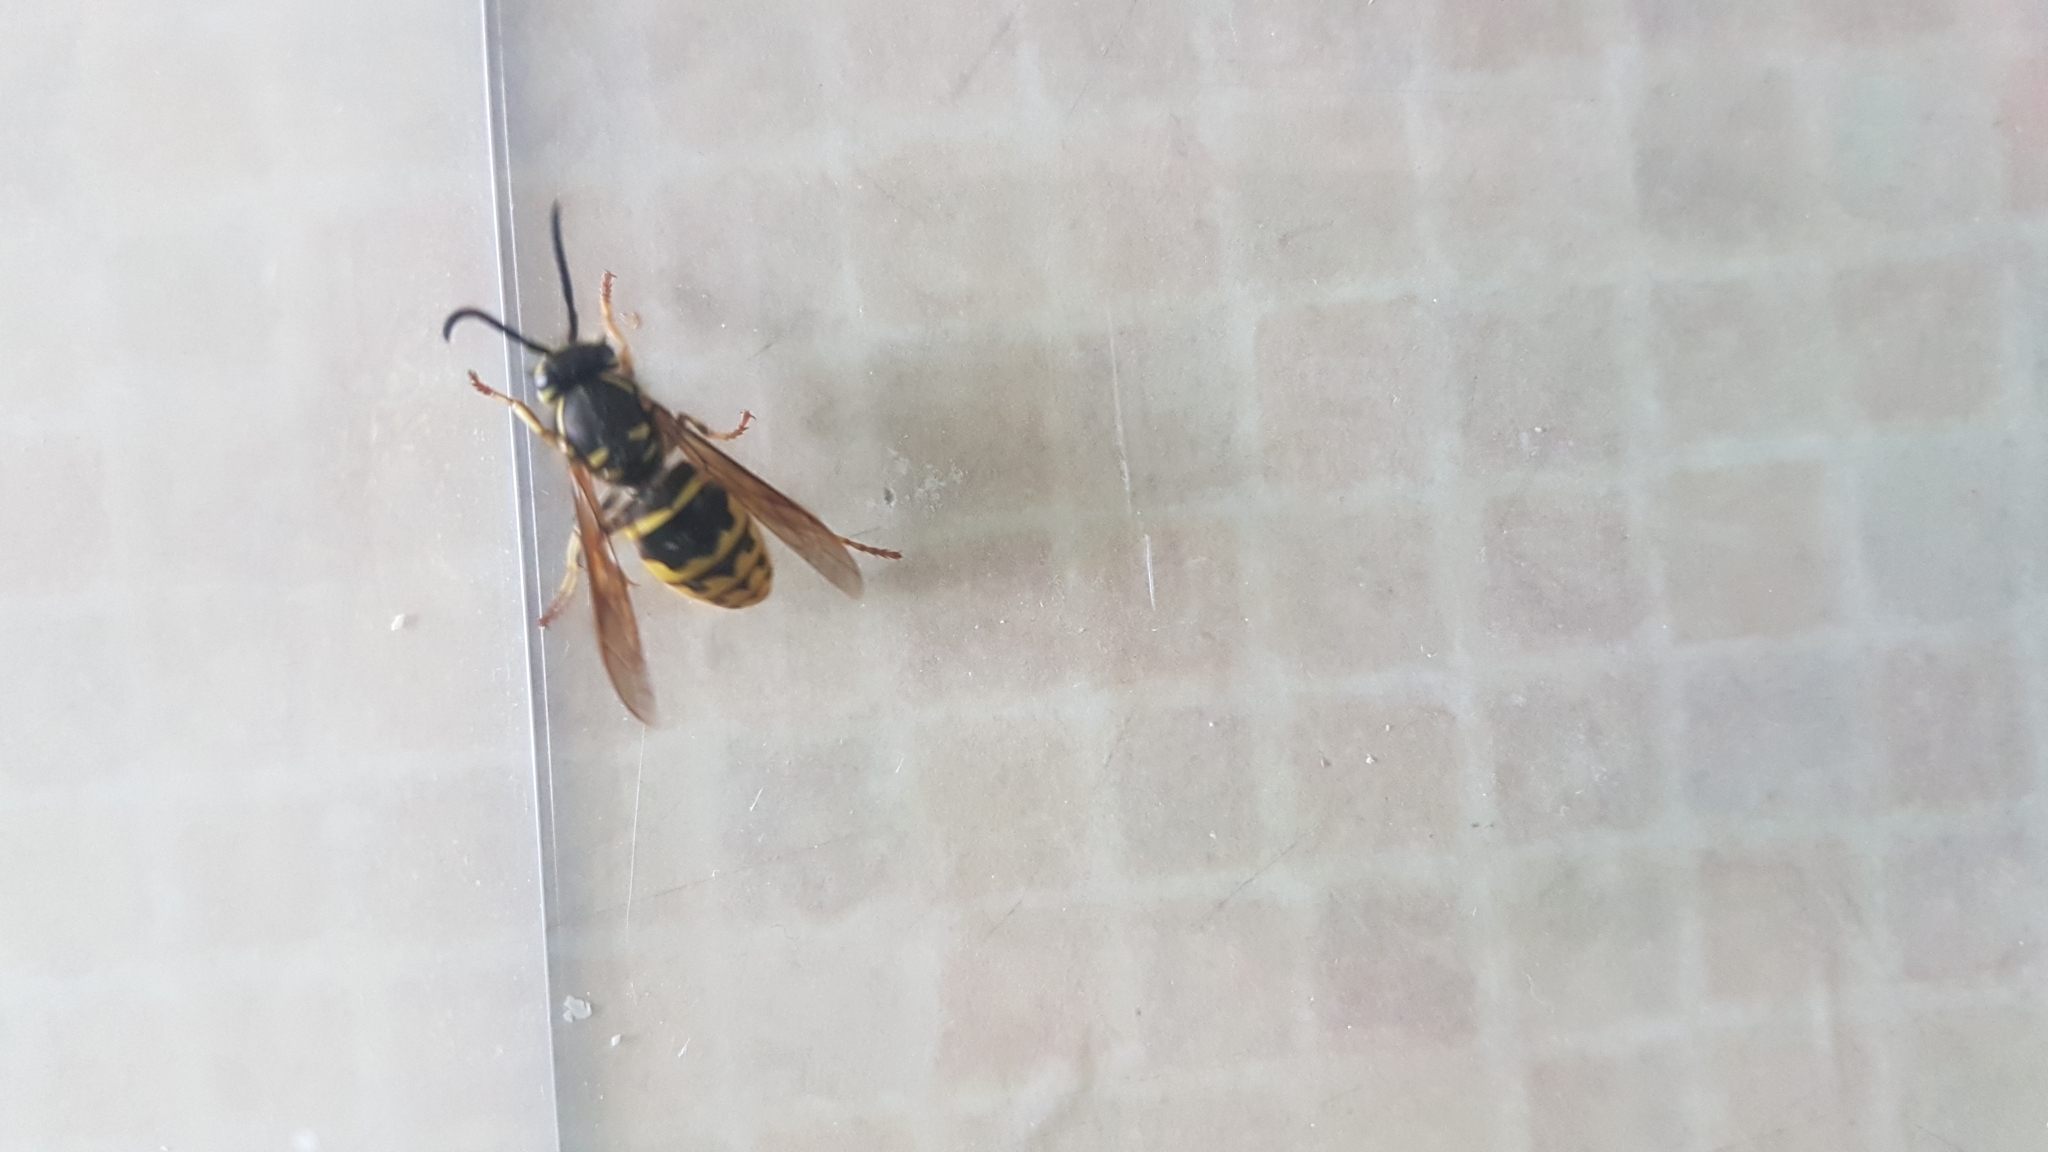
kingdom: Animalia
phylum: Arthropoda
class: Insecta
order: Hymenoptera
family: Vespidae
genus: Vespula
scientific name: Vespula alascensis
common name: Alaska yellowjacket
